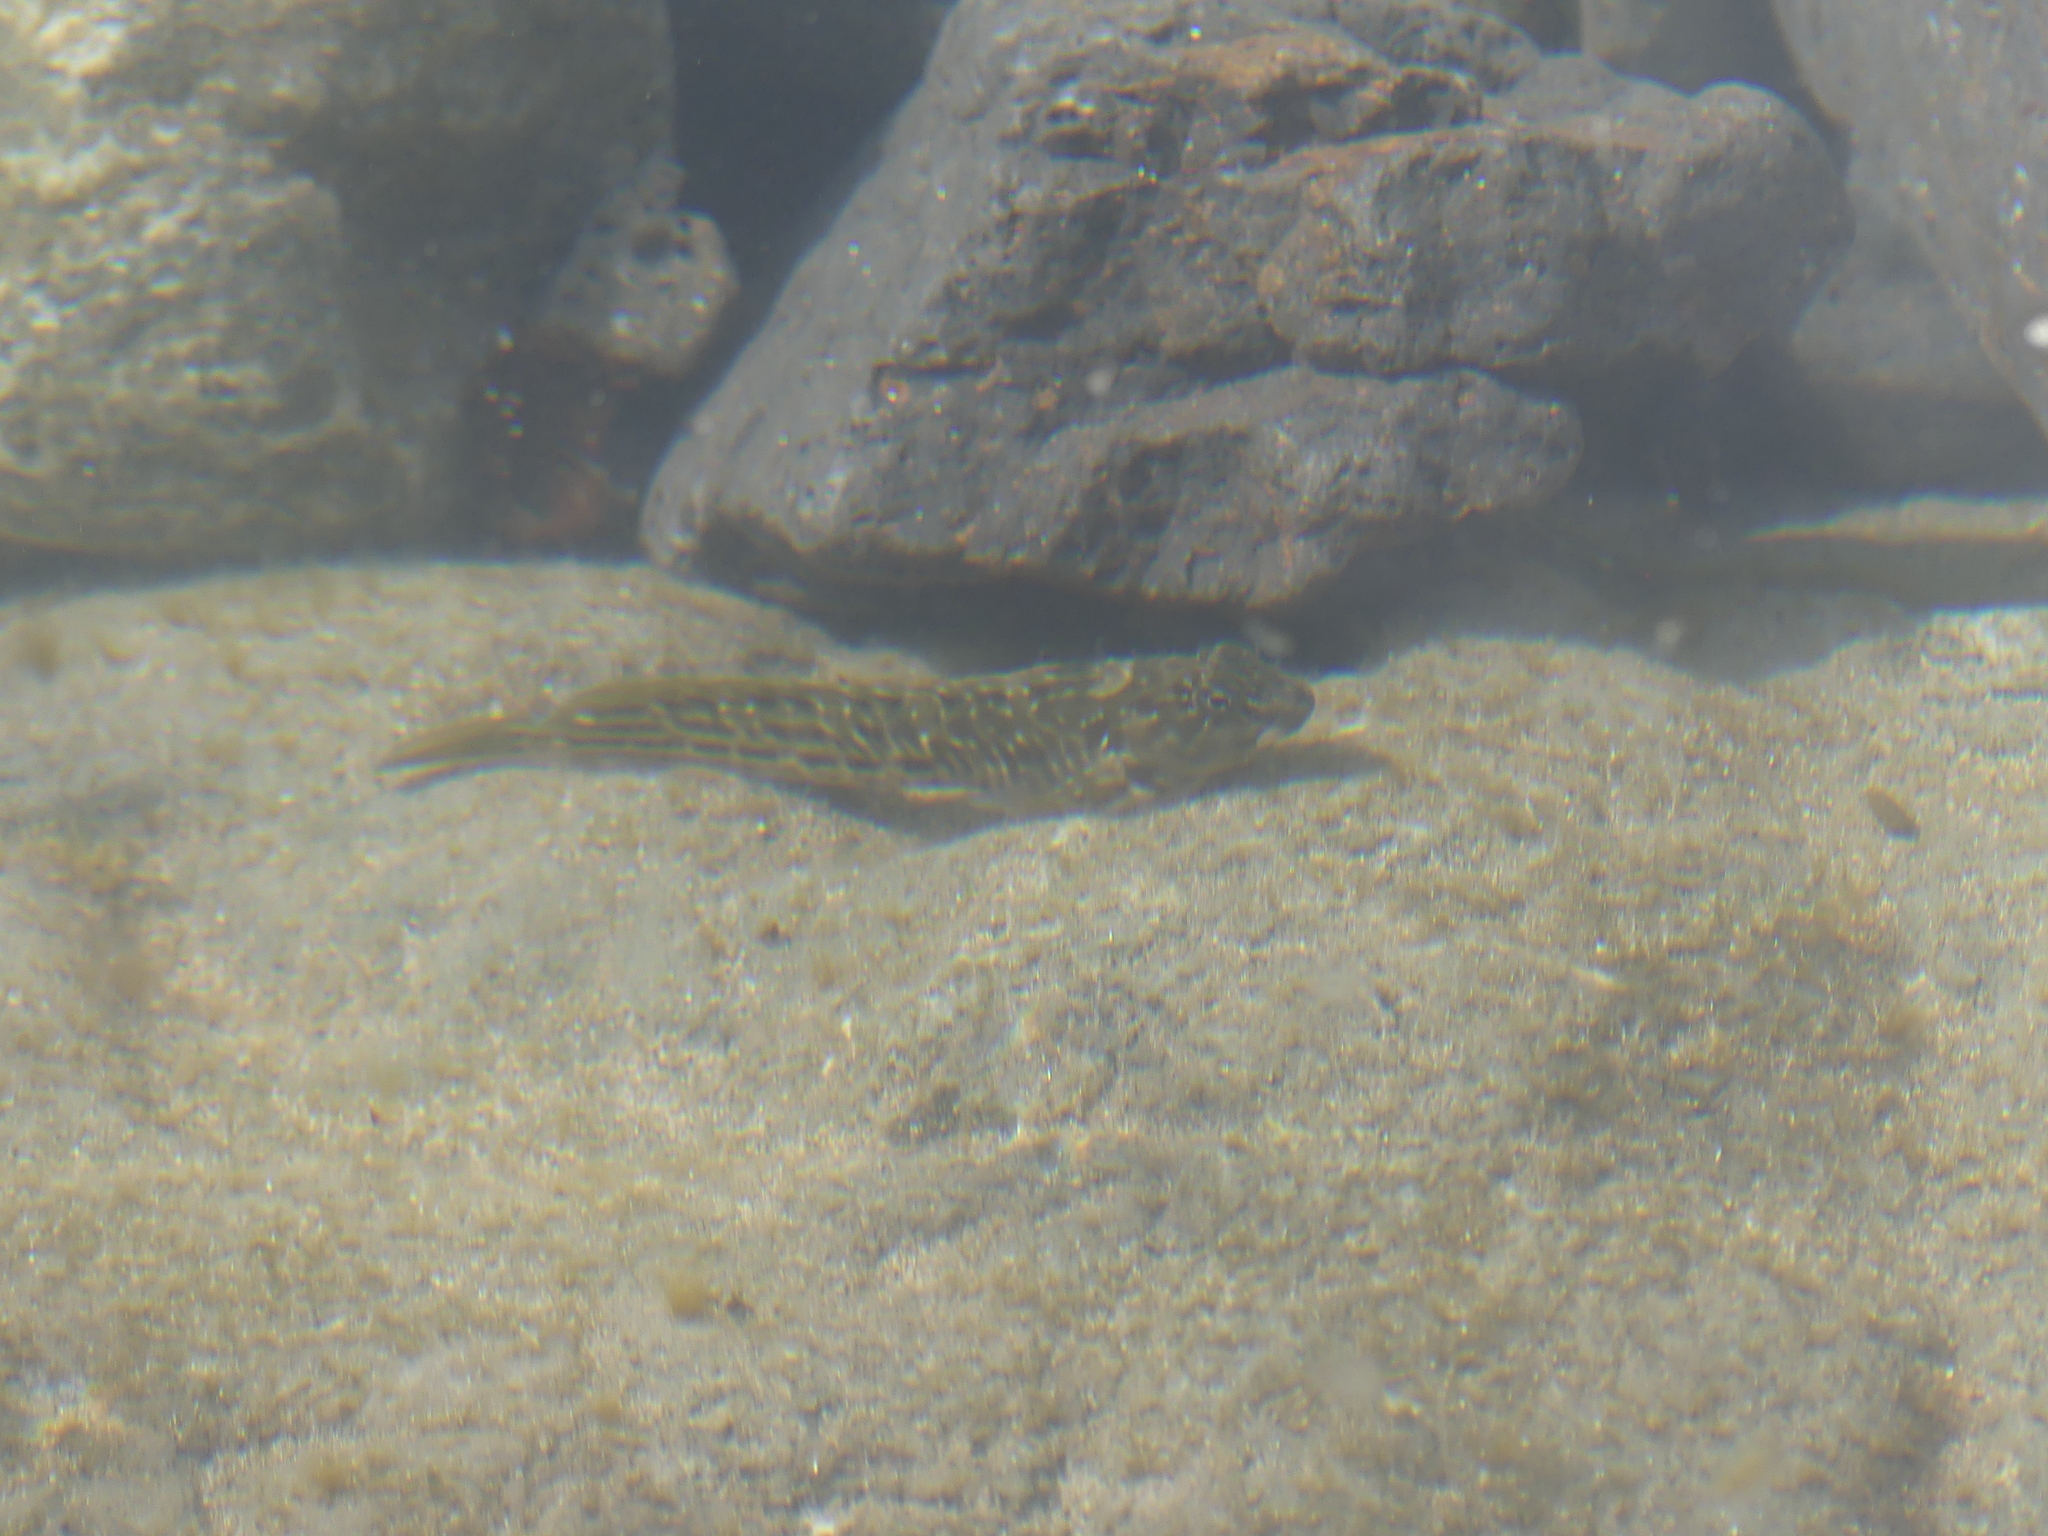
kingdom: Animalia
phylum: Chordata
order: Perciformes
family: Blenniidae
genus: Parablennius
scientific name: Parablennius parvicornis
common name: Rock-pool blenny
